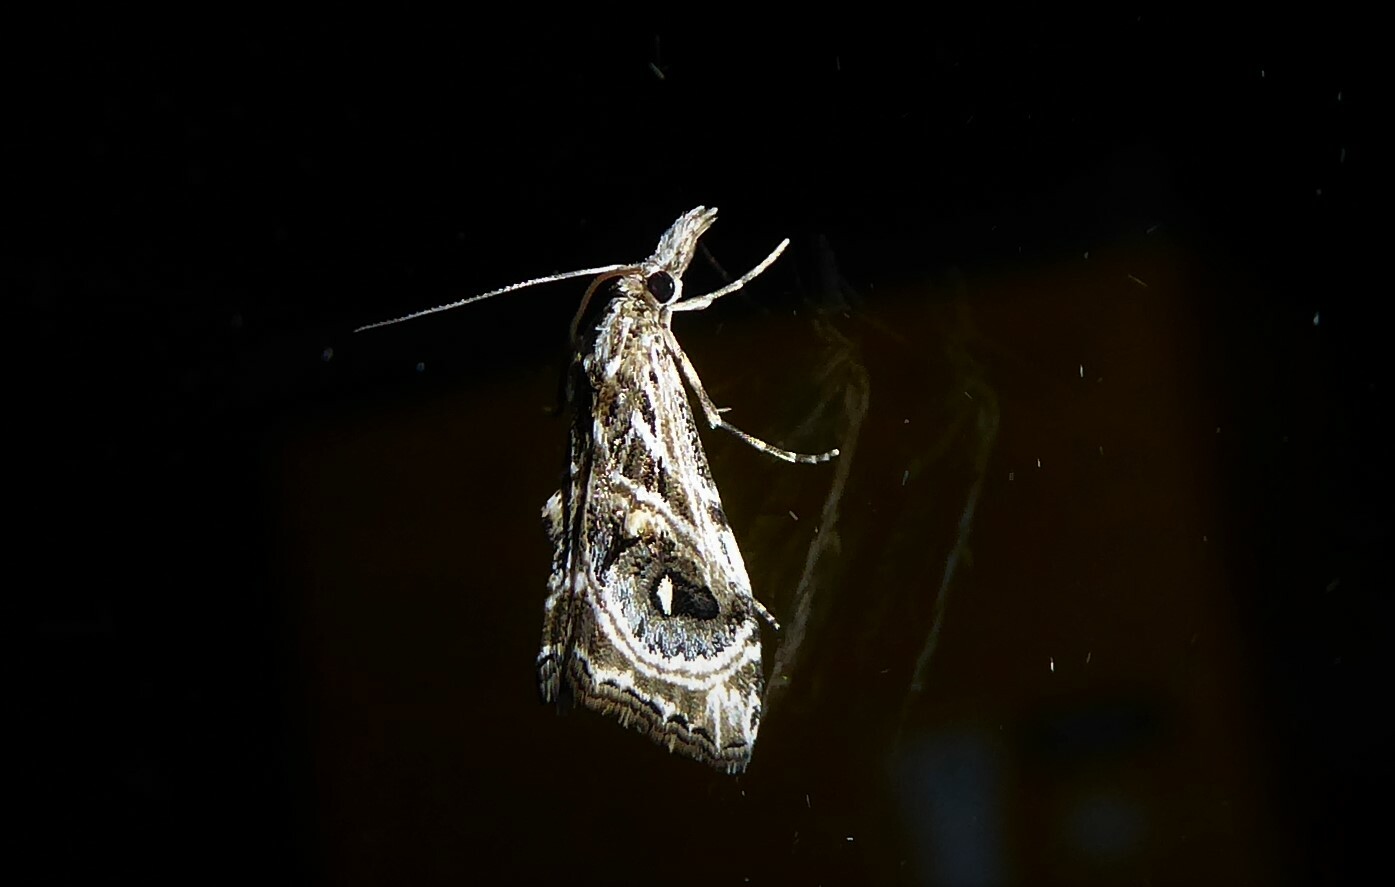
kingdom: Animalia
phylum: Arthropoda
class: Insecta
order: Lepidoptera
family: Crambidae
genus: Gadira
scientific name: Gadira acerella
